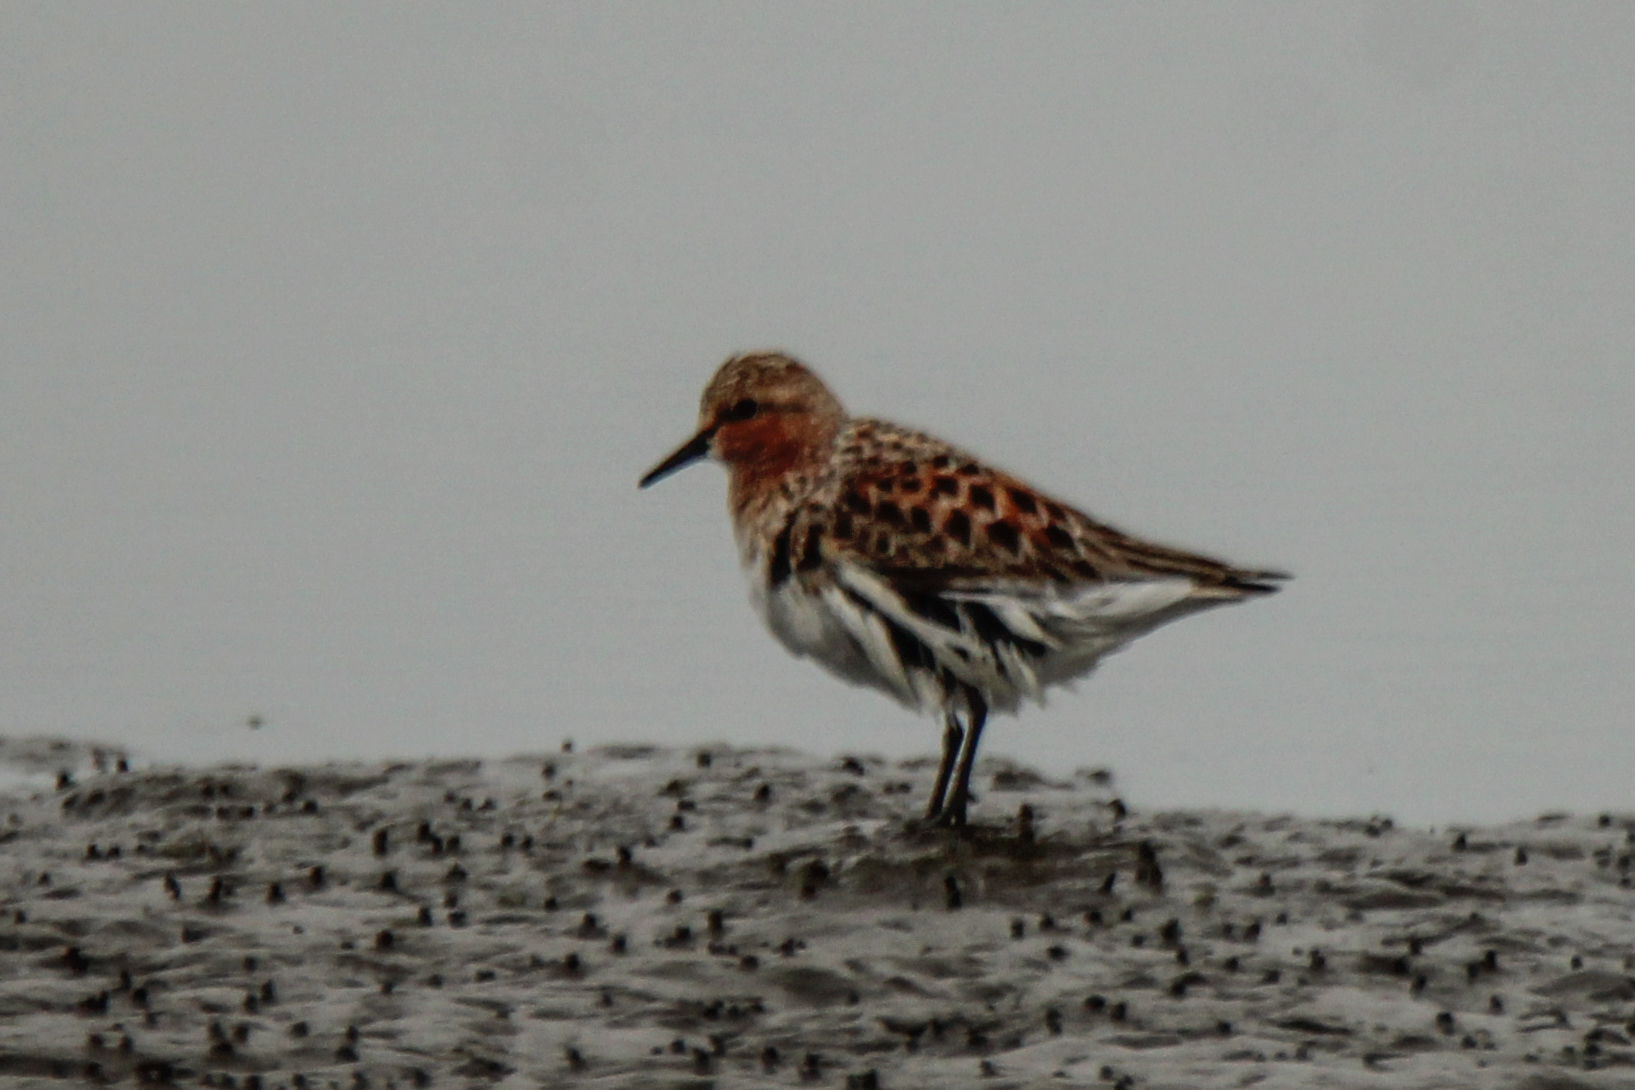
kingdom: Animalia
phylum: Chordata
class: Aves
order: Charadriiformes
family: Scolopacidae
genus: Calidris
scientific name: Calidris ruficollis
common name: Red-necked stint
